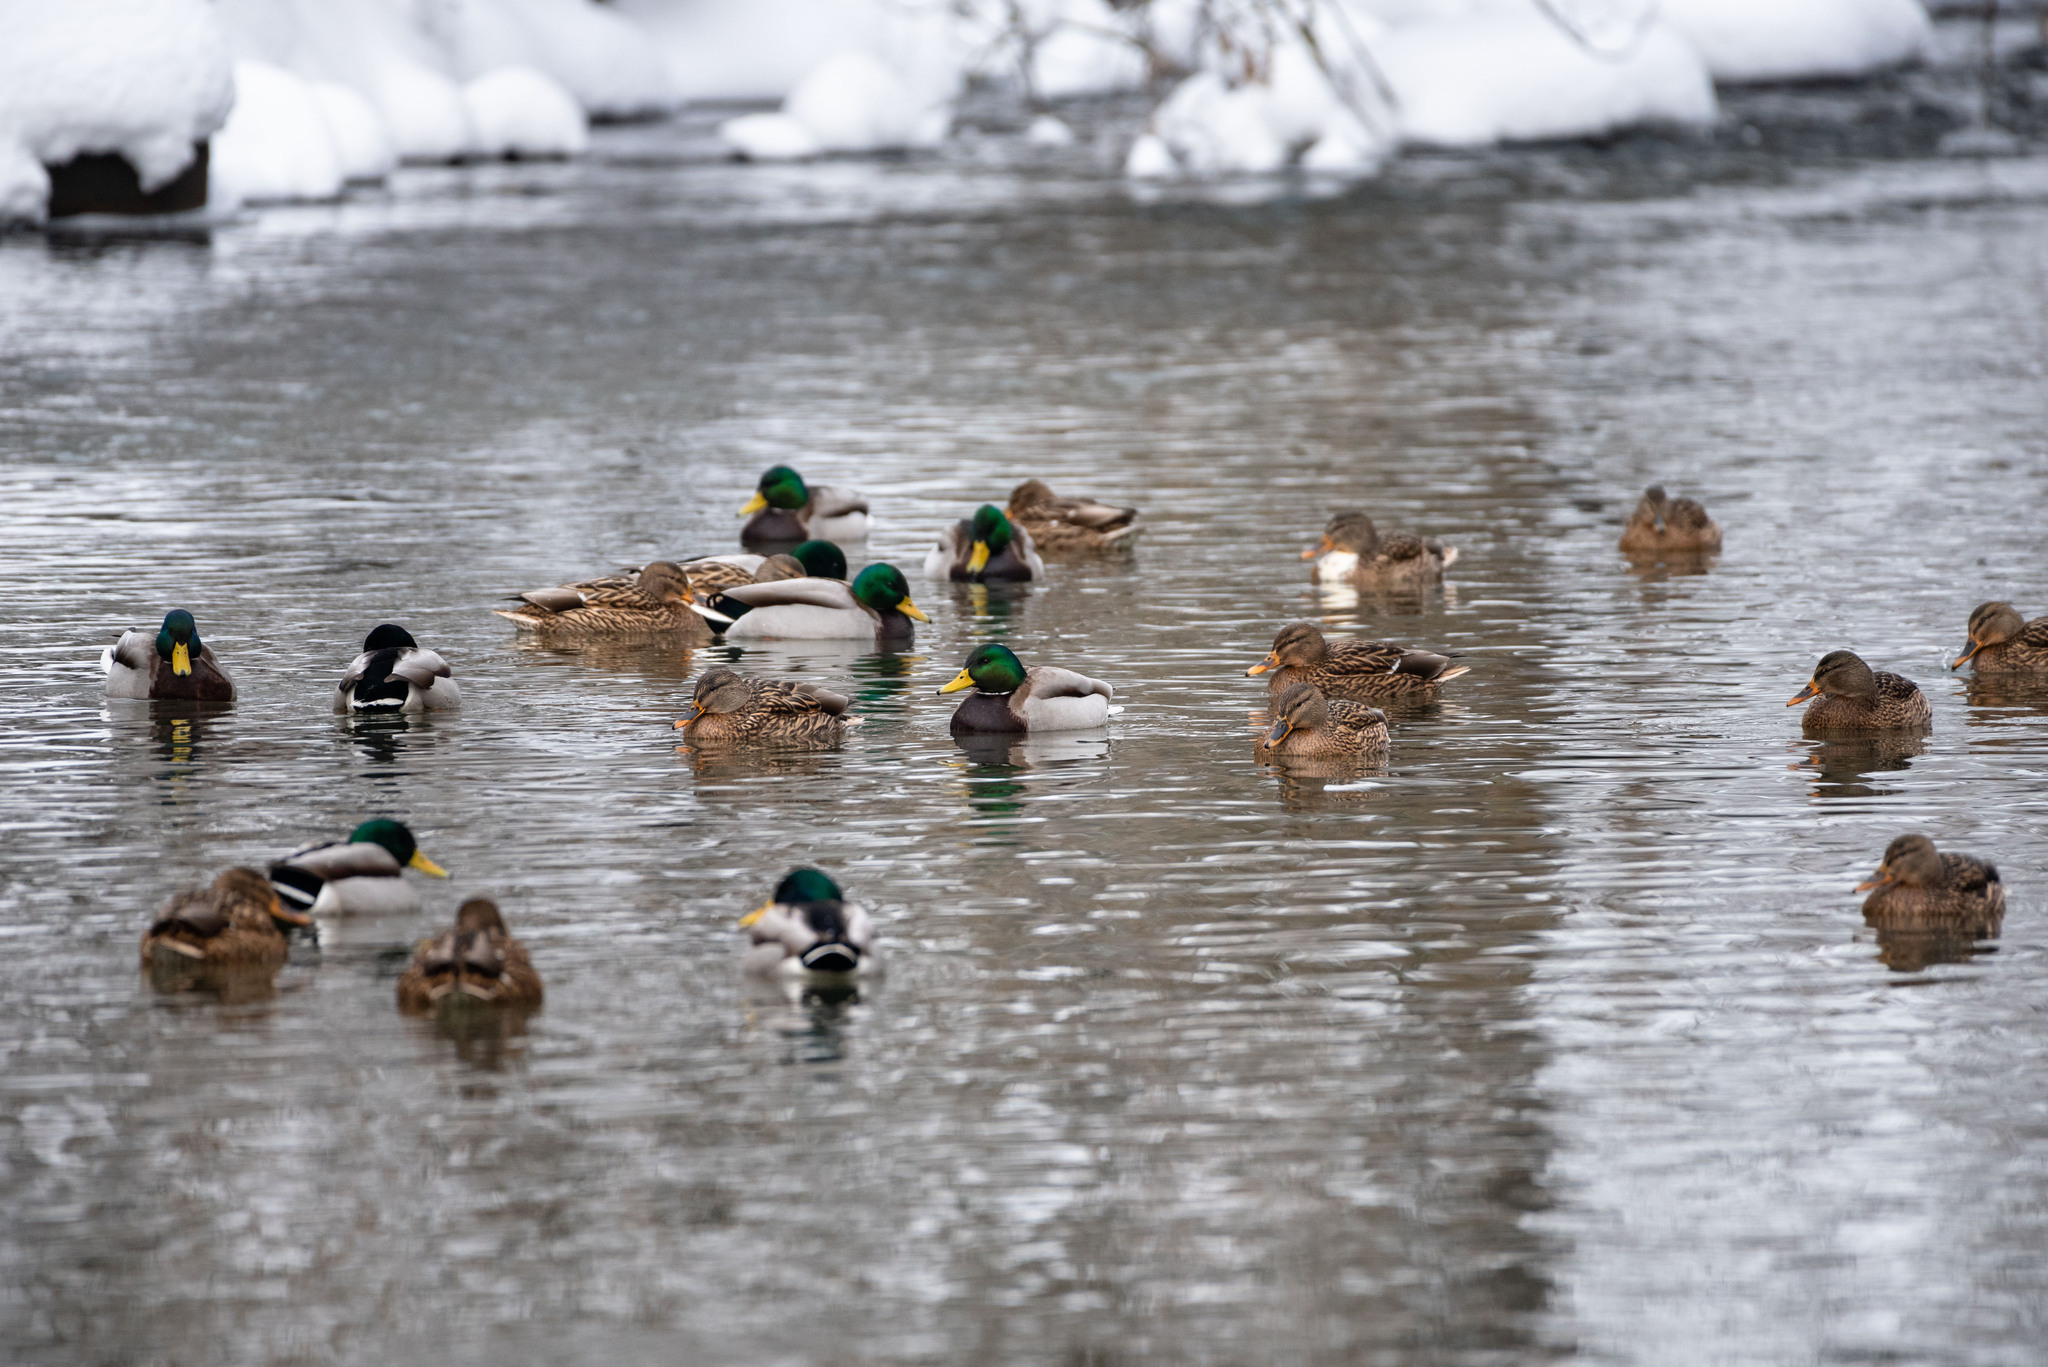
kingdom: Animalia
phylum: Chordata
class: Aves
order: Anseriformes
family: Anatidae
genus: Anas
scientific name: Anas platyrhynchos
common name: Mallard
